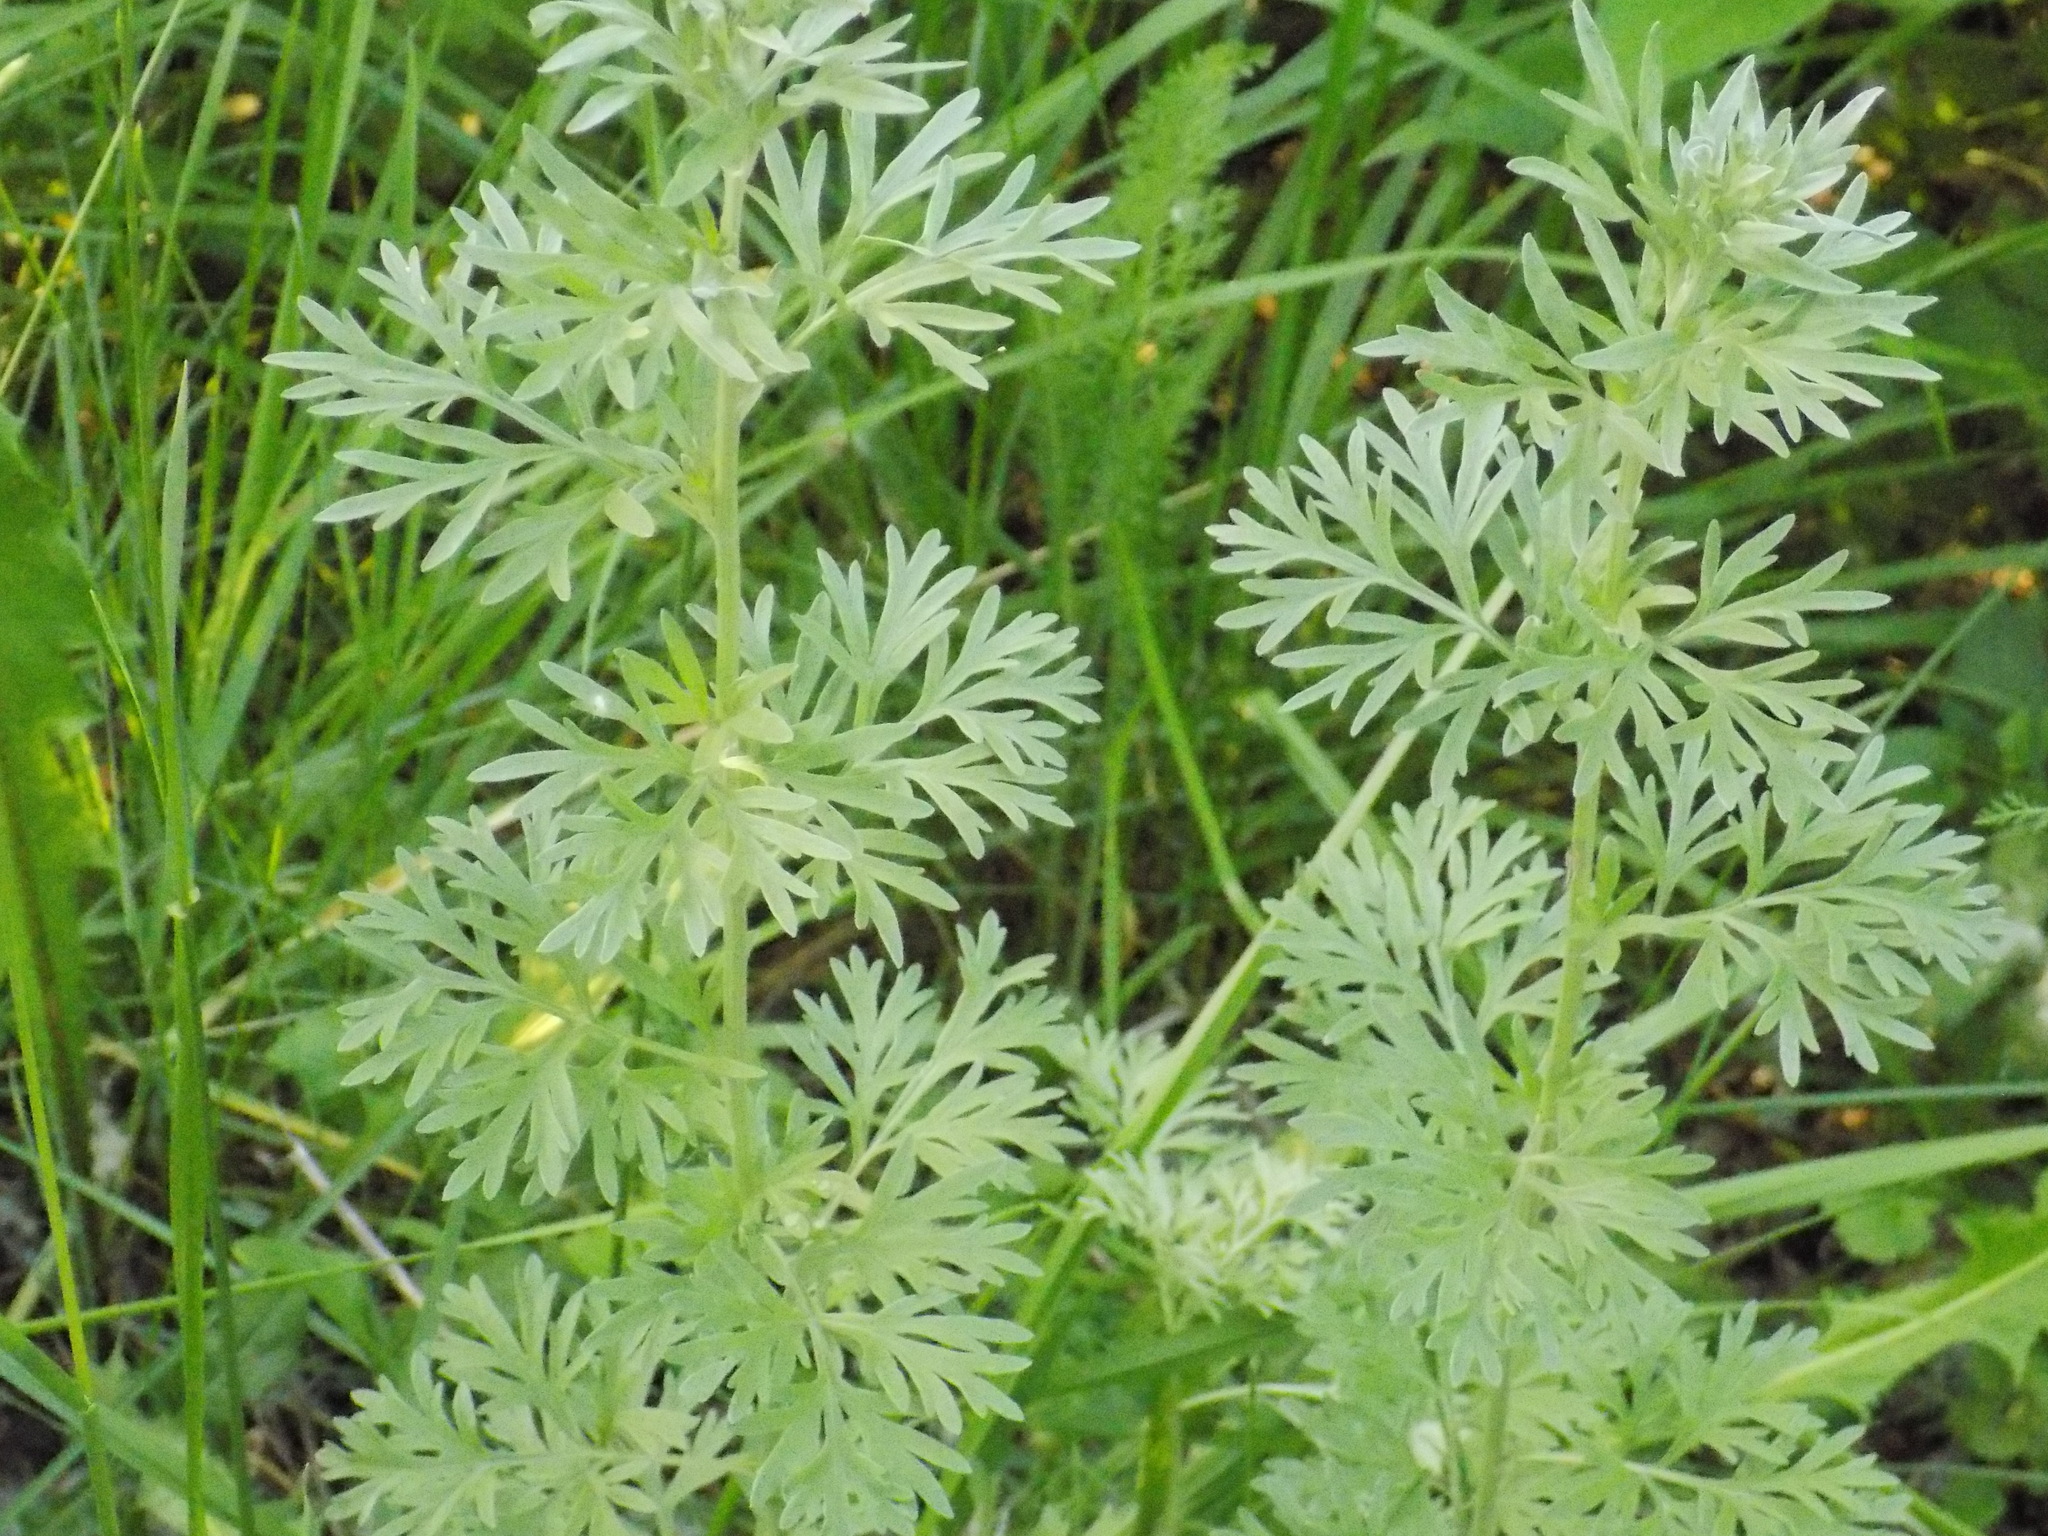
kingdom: Plantae
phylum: Tracheophyta
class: Magnoliopsida
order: Asterales
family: Asteraceae
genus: Artemisia
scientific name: Artemisia absinthium
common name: Wormwood
